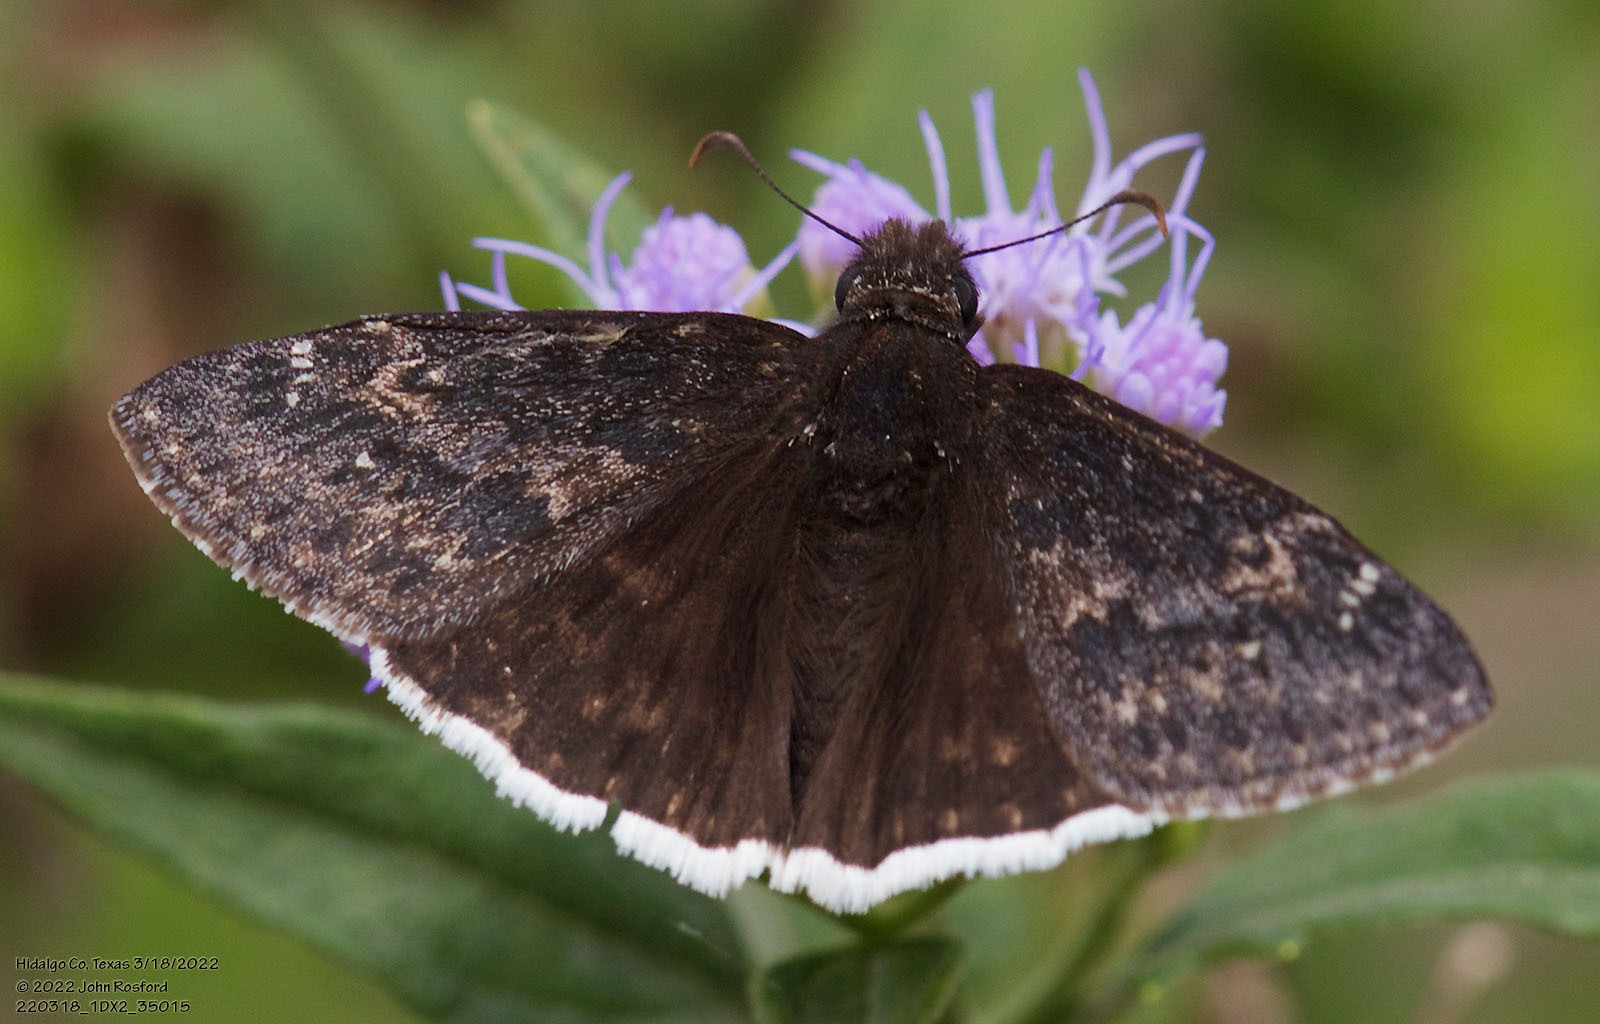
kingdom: Animalia
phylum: Arthropoda
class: Insecta
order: Lepidoptera
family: Hesperiidae
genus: Erynnis
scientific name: Erynnis funeralis
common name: Funereal duskywing
